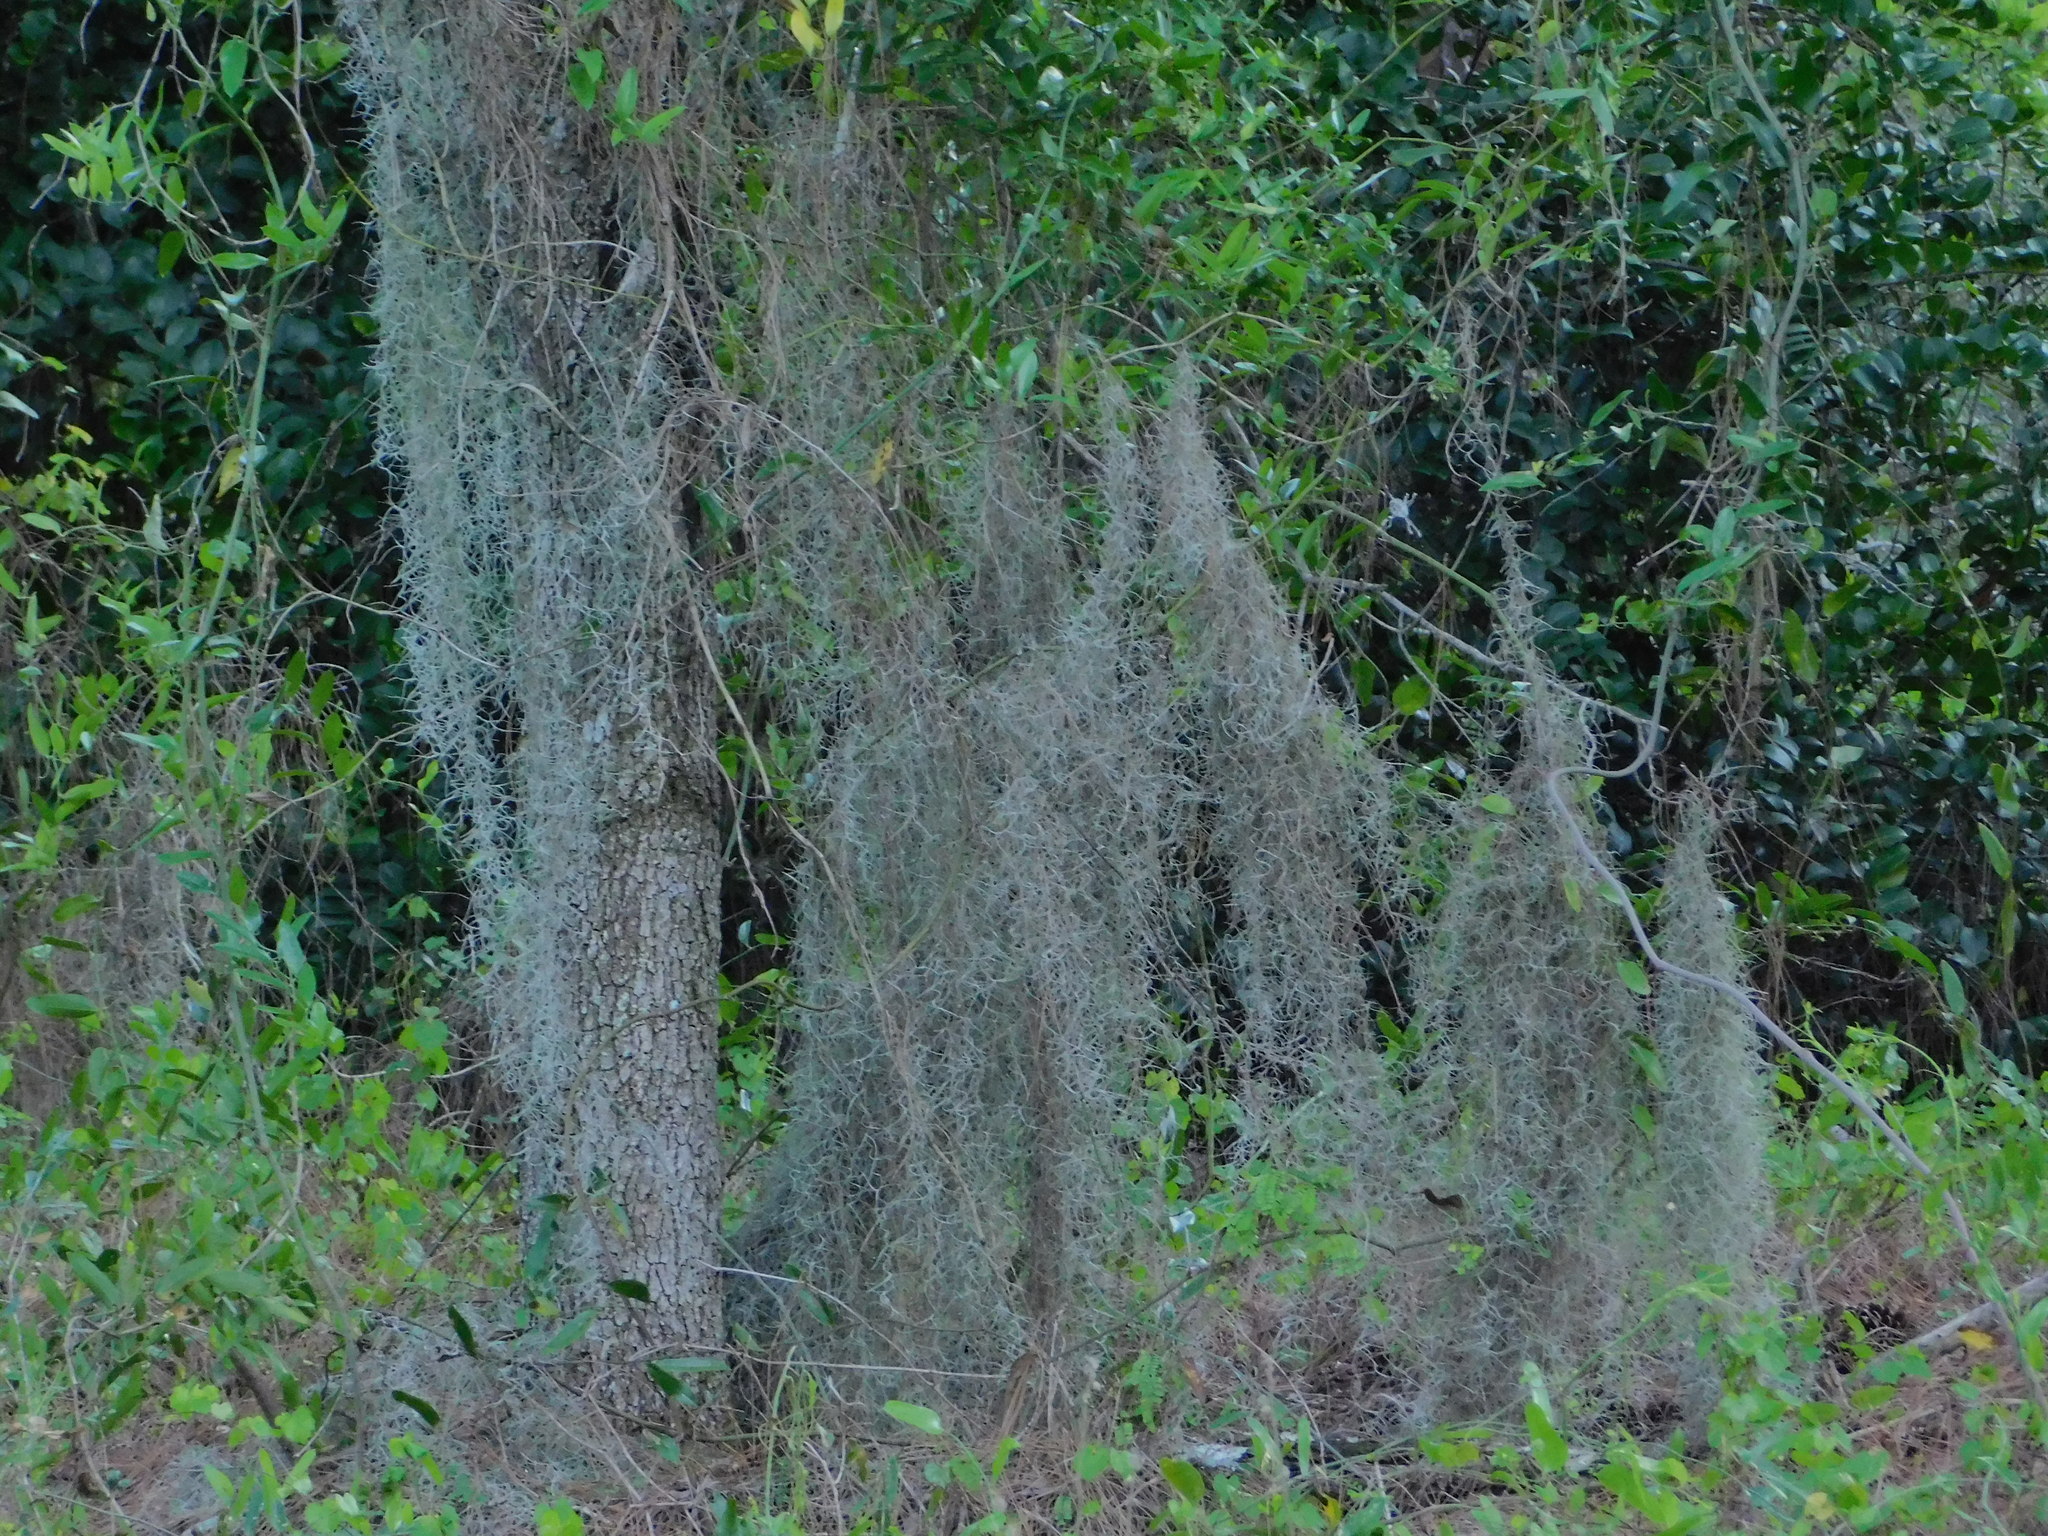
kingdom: Plantae
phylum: Tracheophyta
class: Liliopsida
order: Poales
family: Bromeliaceae
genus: Tillandsia
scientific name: Tillandsia usneoides
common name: Spanish moss
